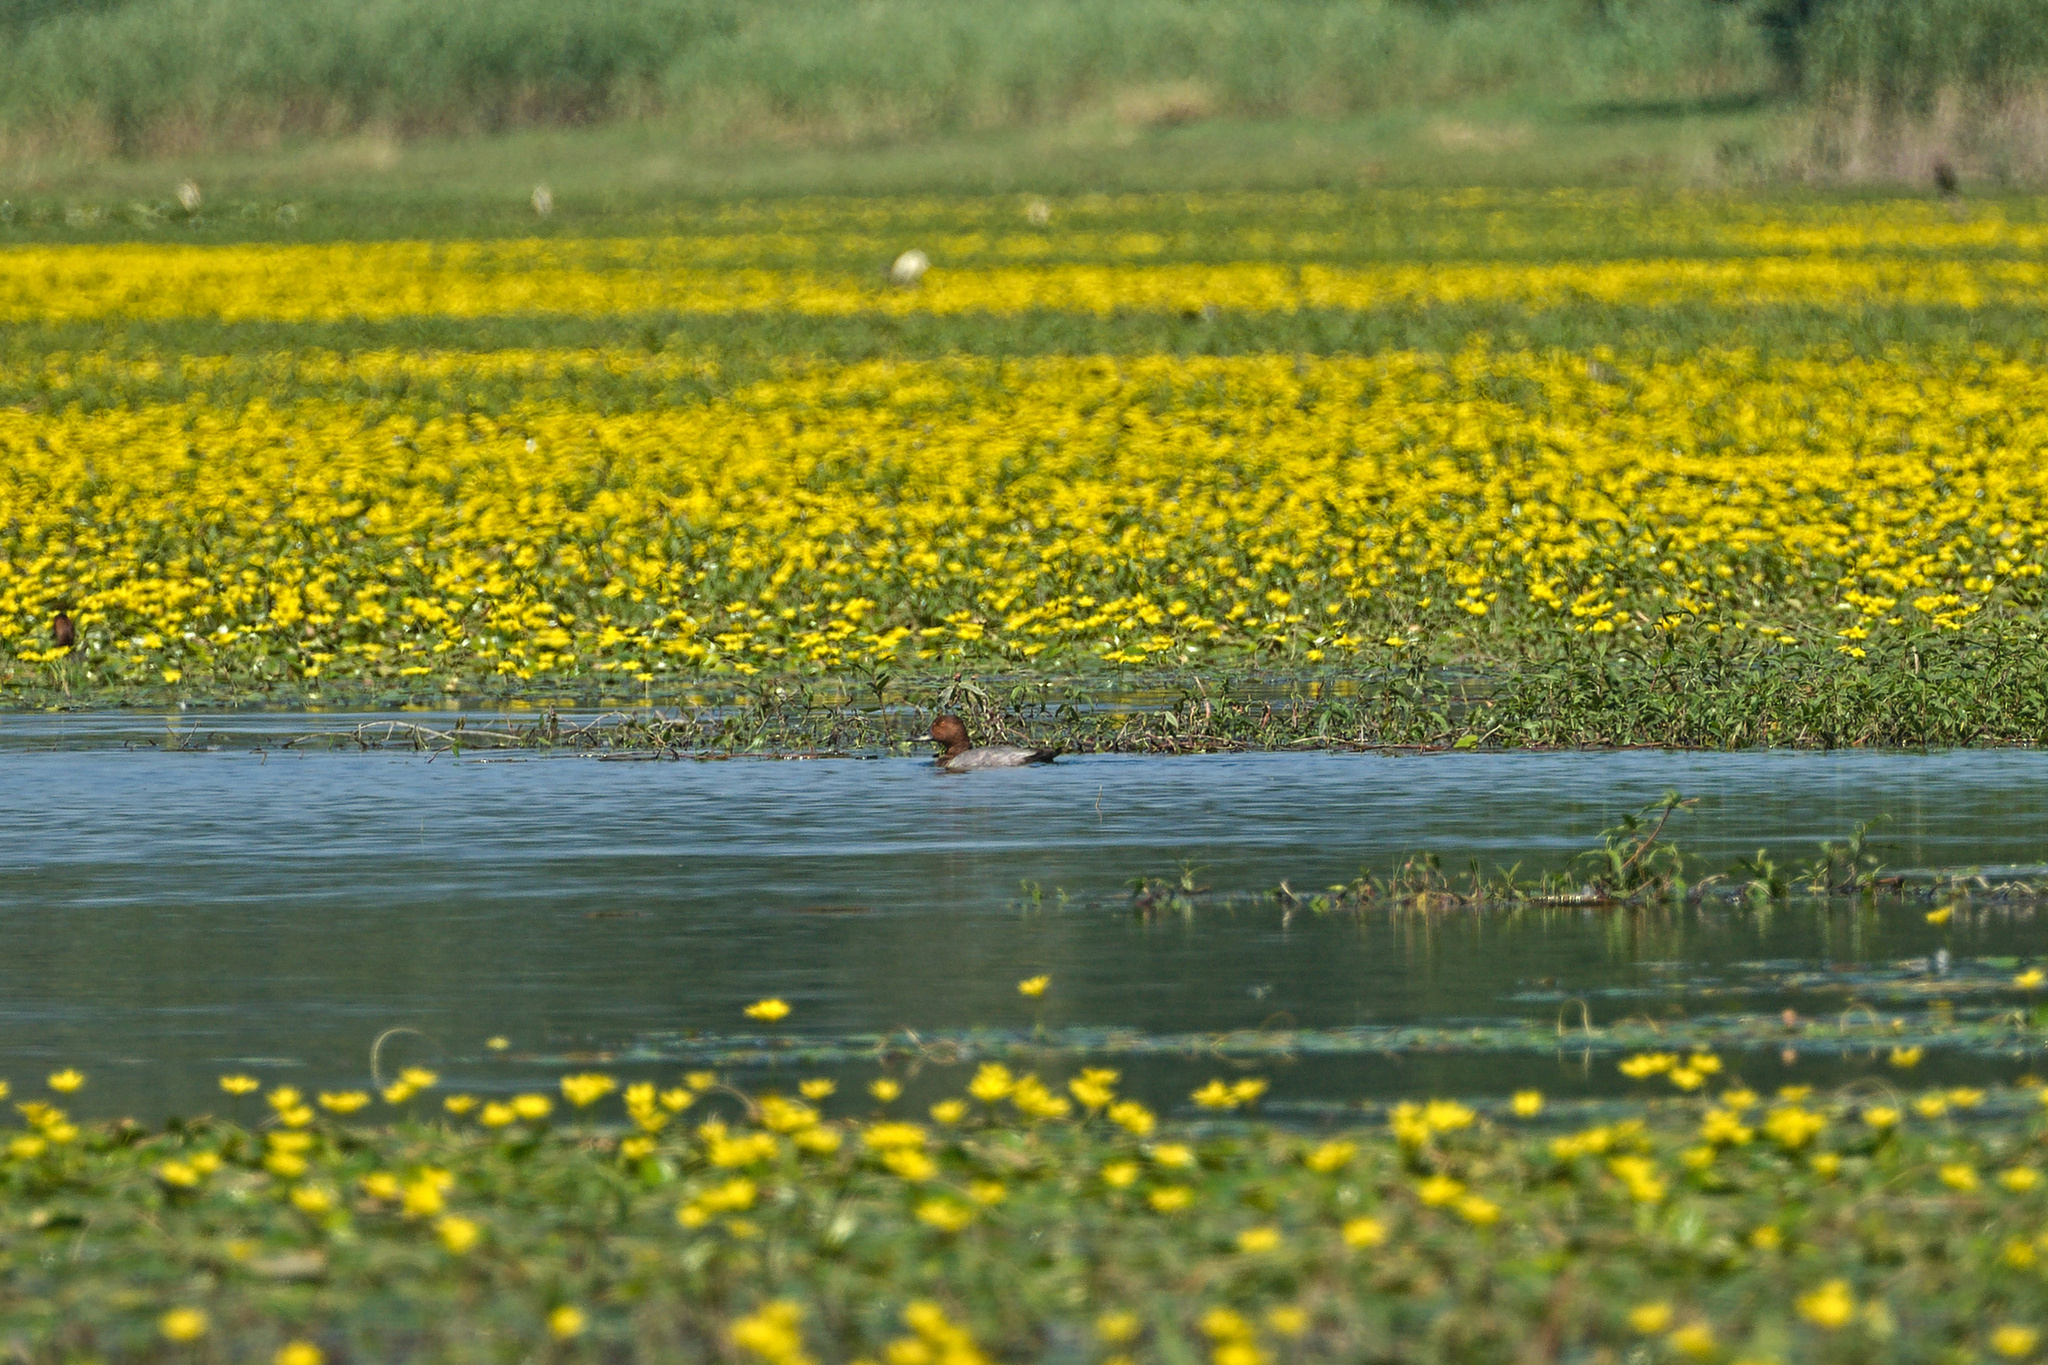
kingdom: Animalia
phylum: Chordata
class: Aves
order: Anseriformes
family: Anatidae
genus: Aythya
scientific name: Aythya ferina
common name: Common pochard
